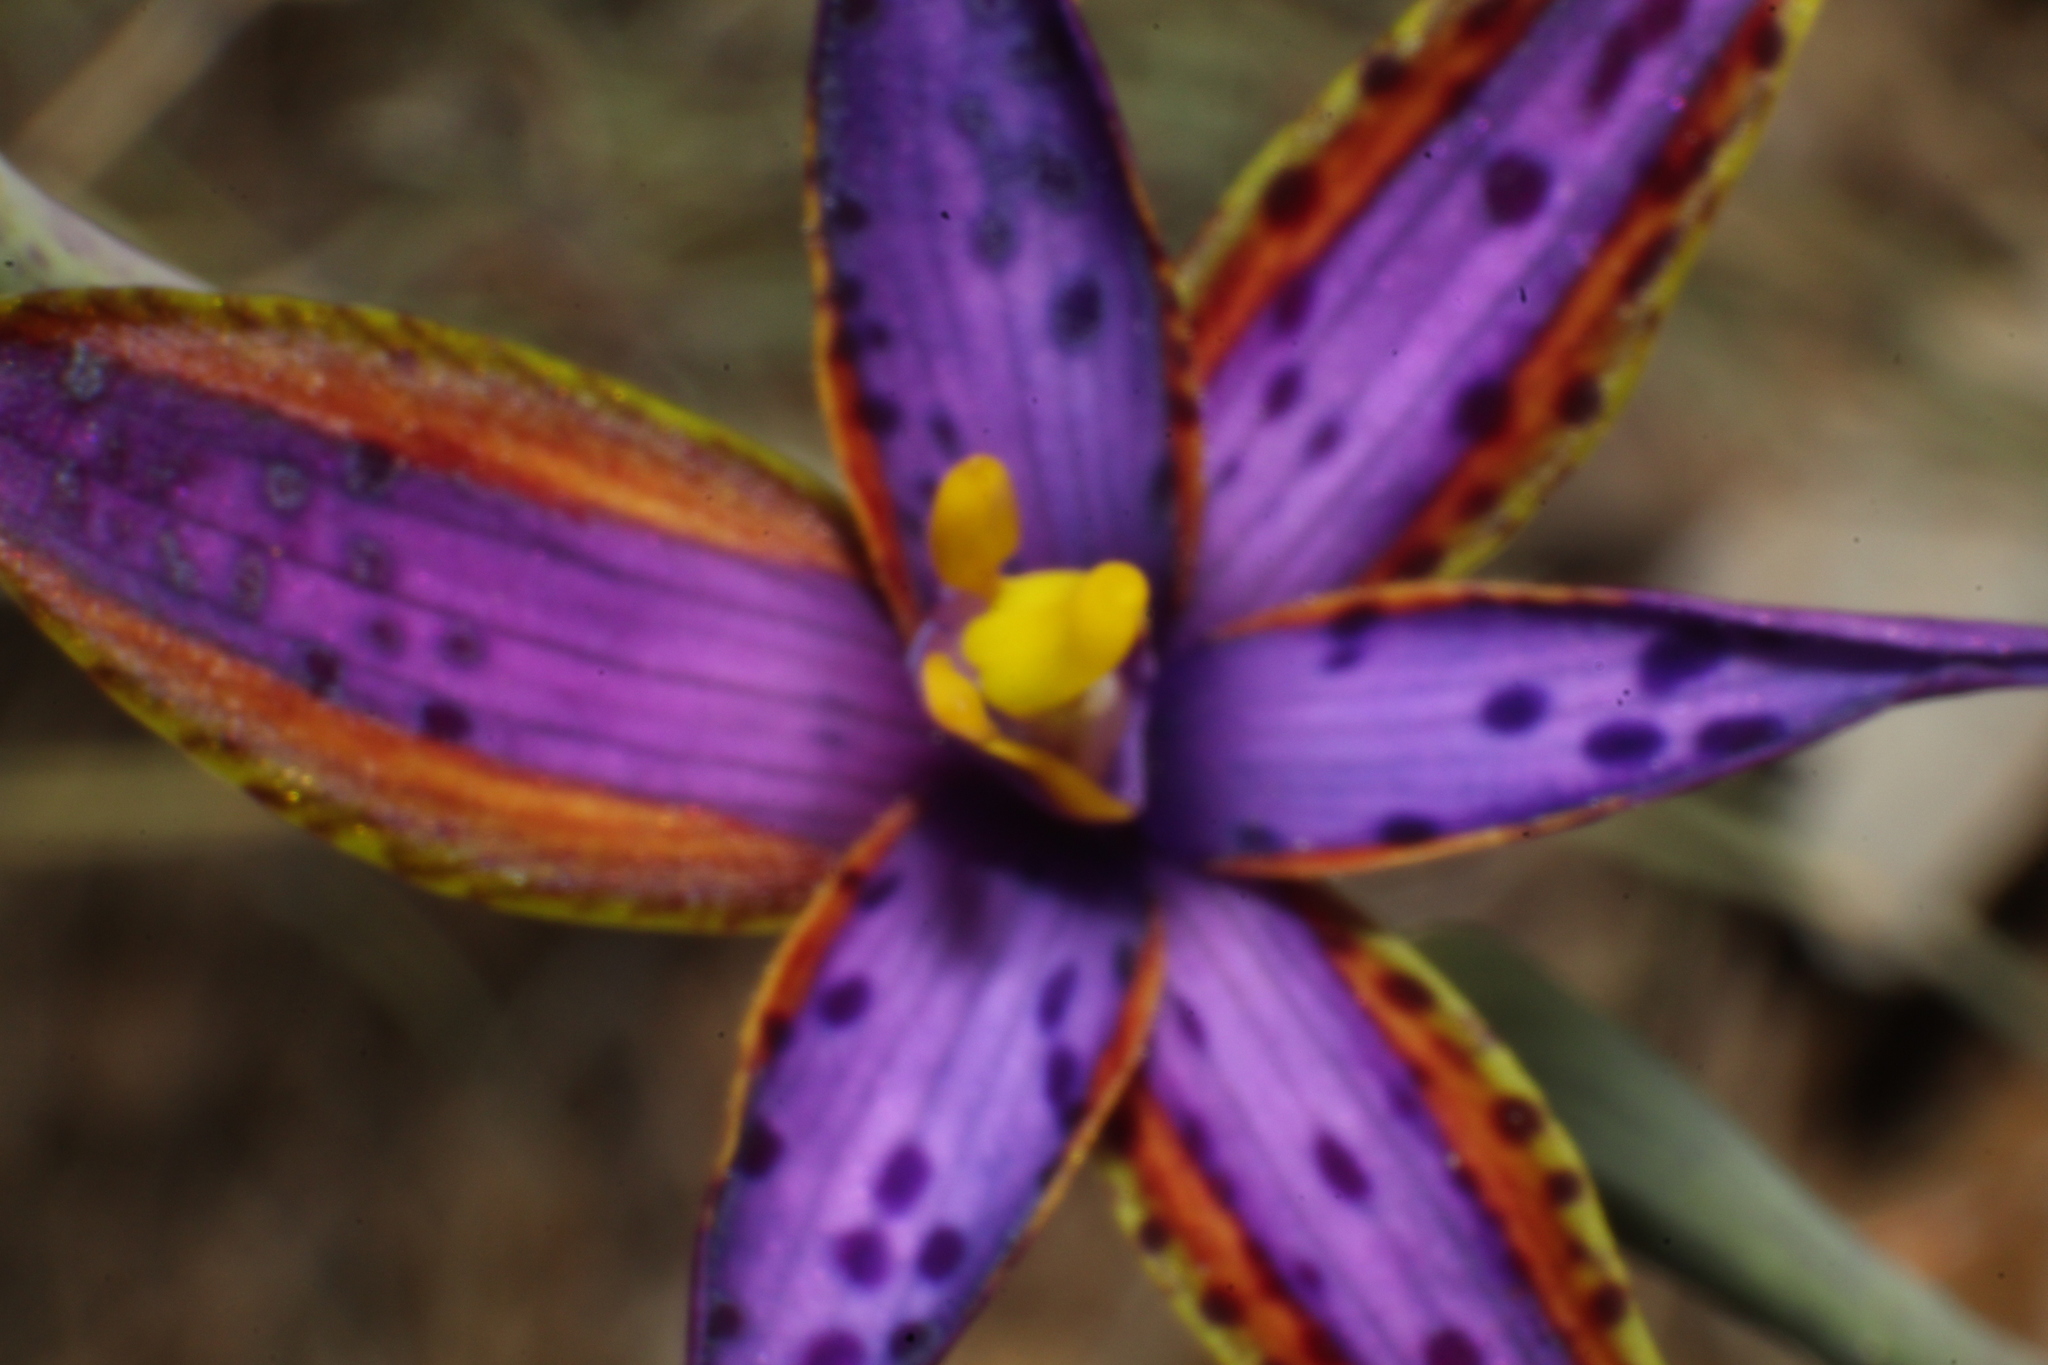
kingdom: Plantae
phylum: Tracheophyta
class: Liliopsida
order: Asparagales
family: Orchidaceae
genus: Thelymitra
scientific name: Thelymitra porphyrosticta
